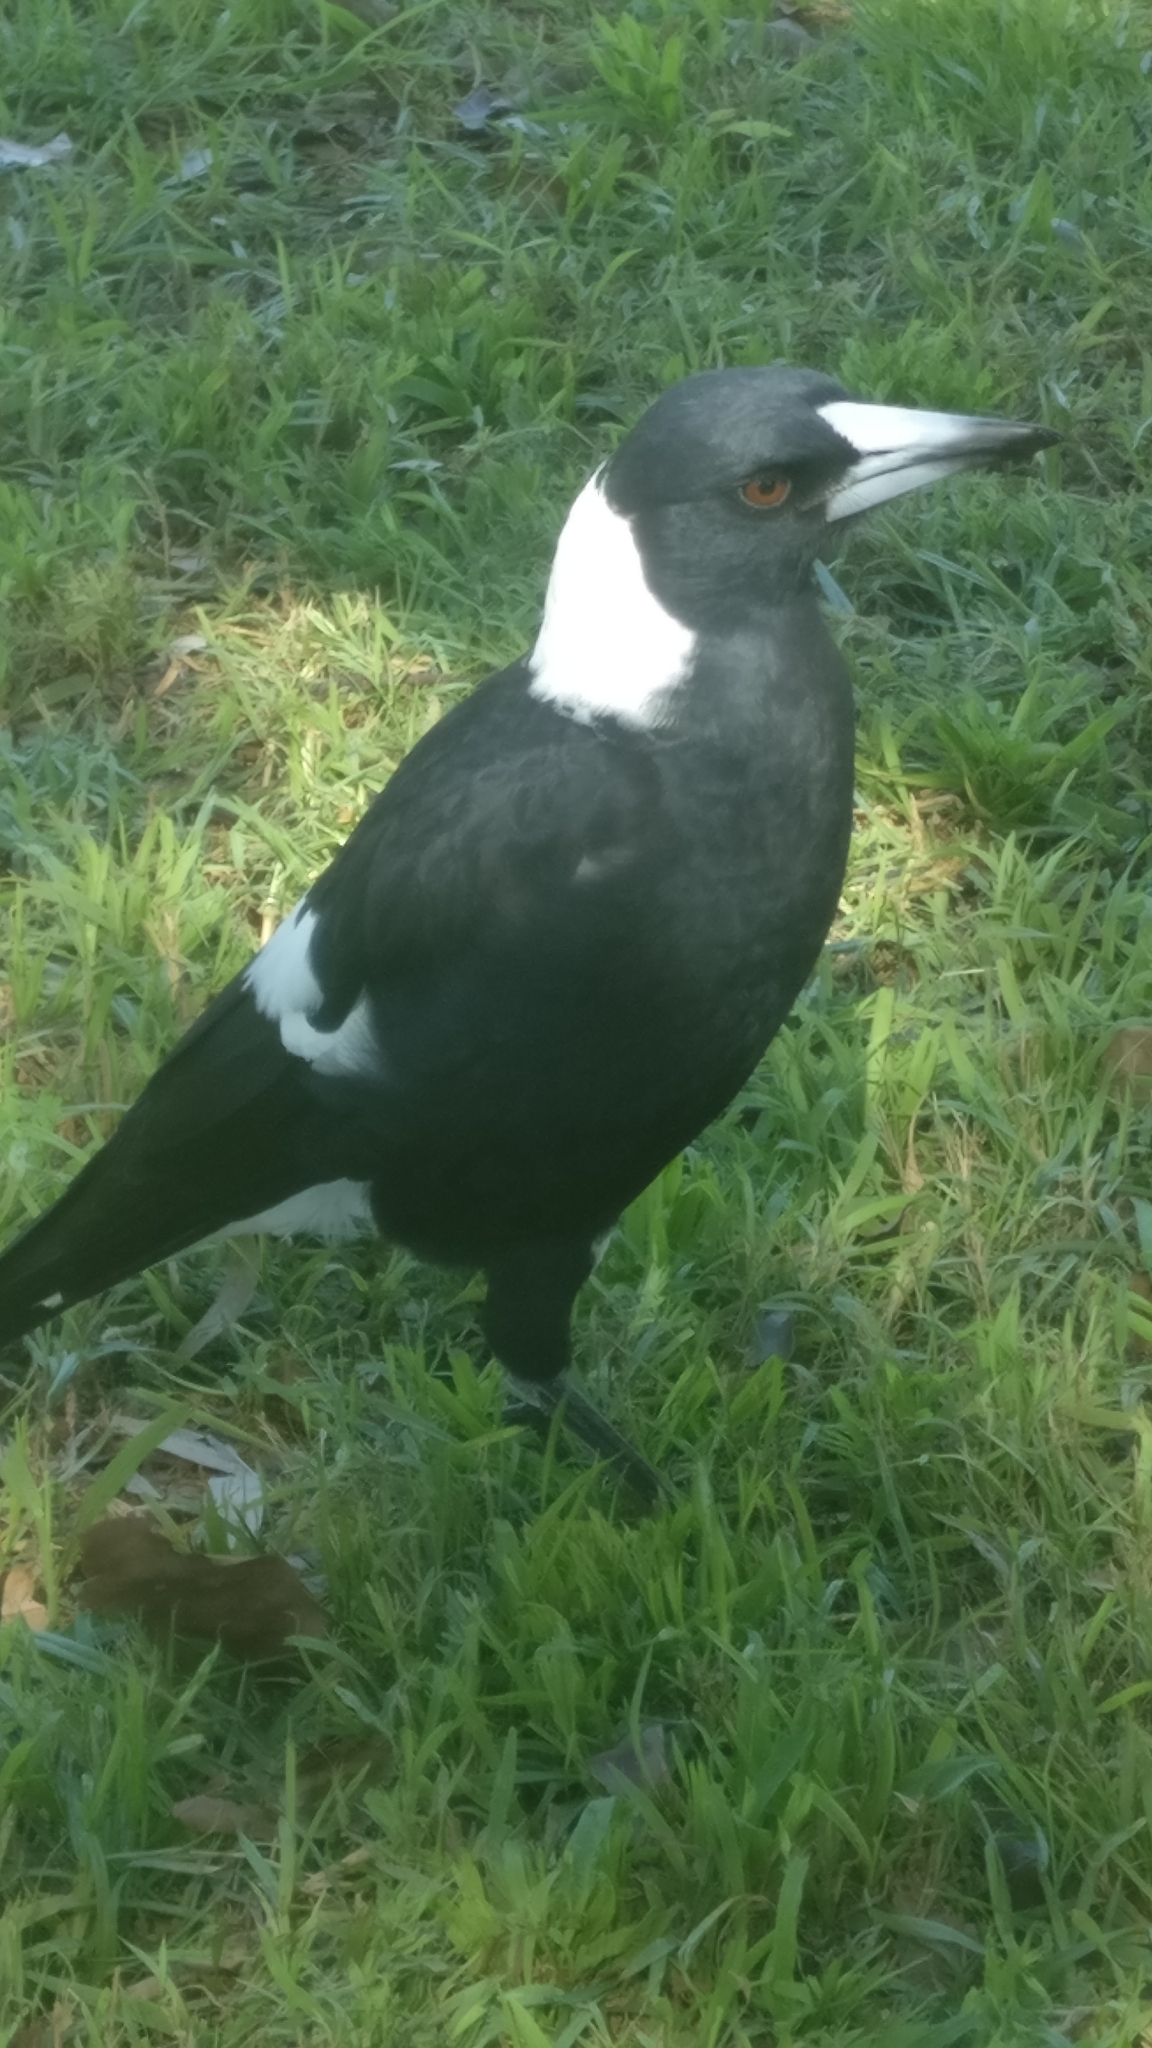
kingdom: Animalia
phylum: Chordata
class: Aves
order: Passeriformes
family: Cracticidae
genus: Gymnorhina
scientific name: Gymnorhina tibicen
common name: Australian magpie
